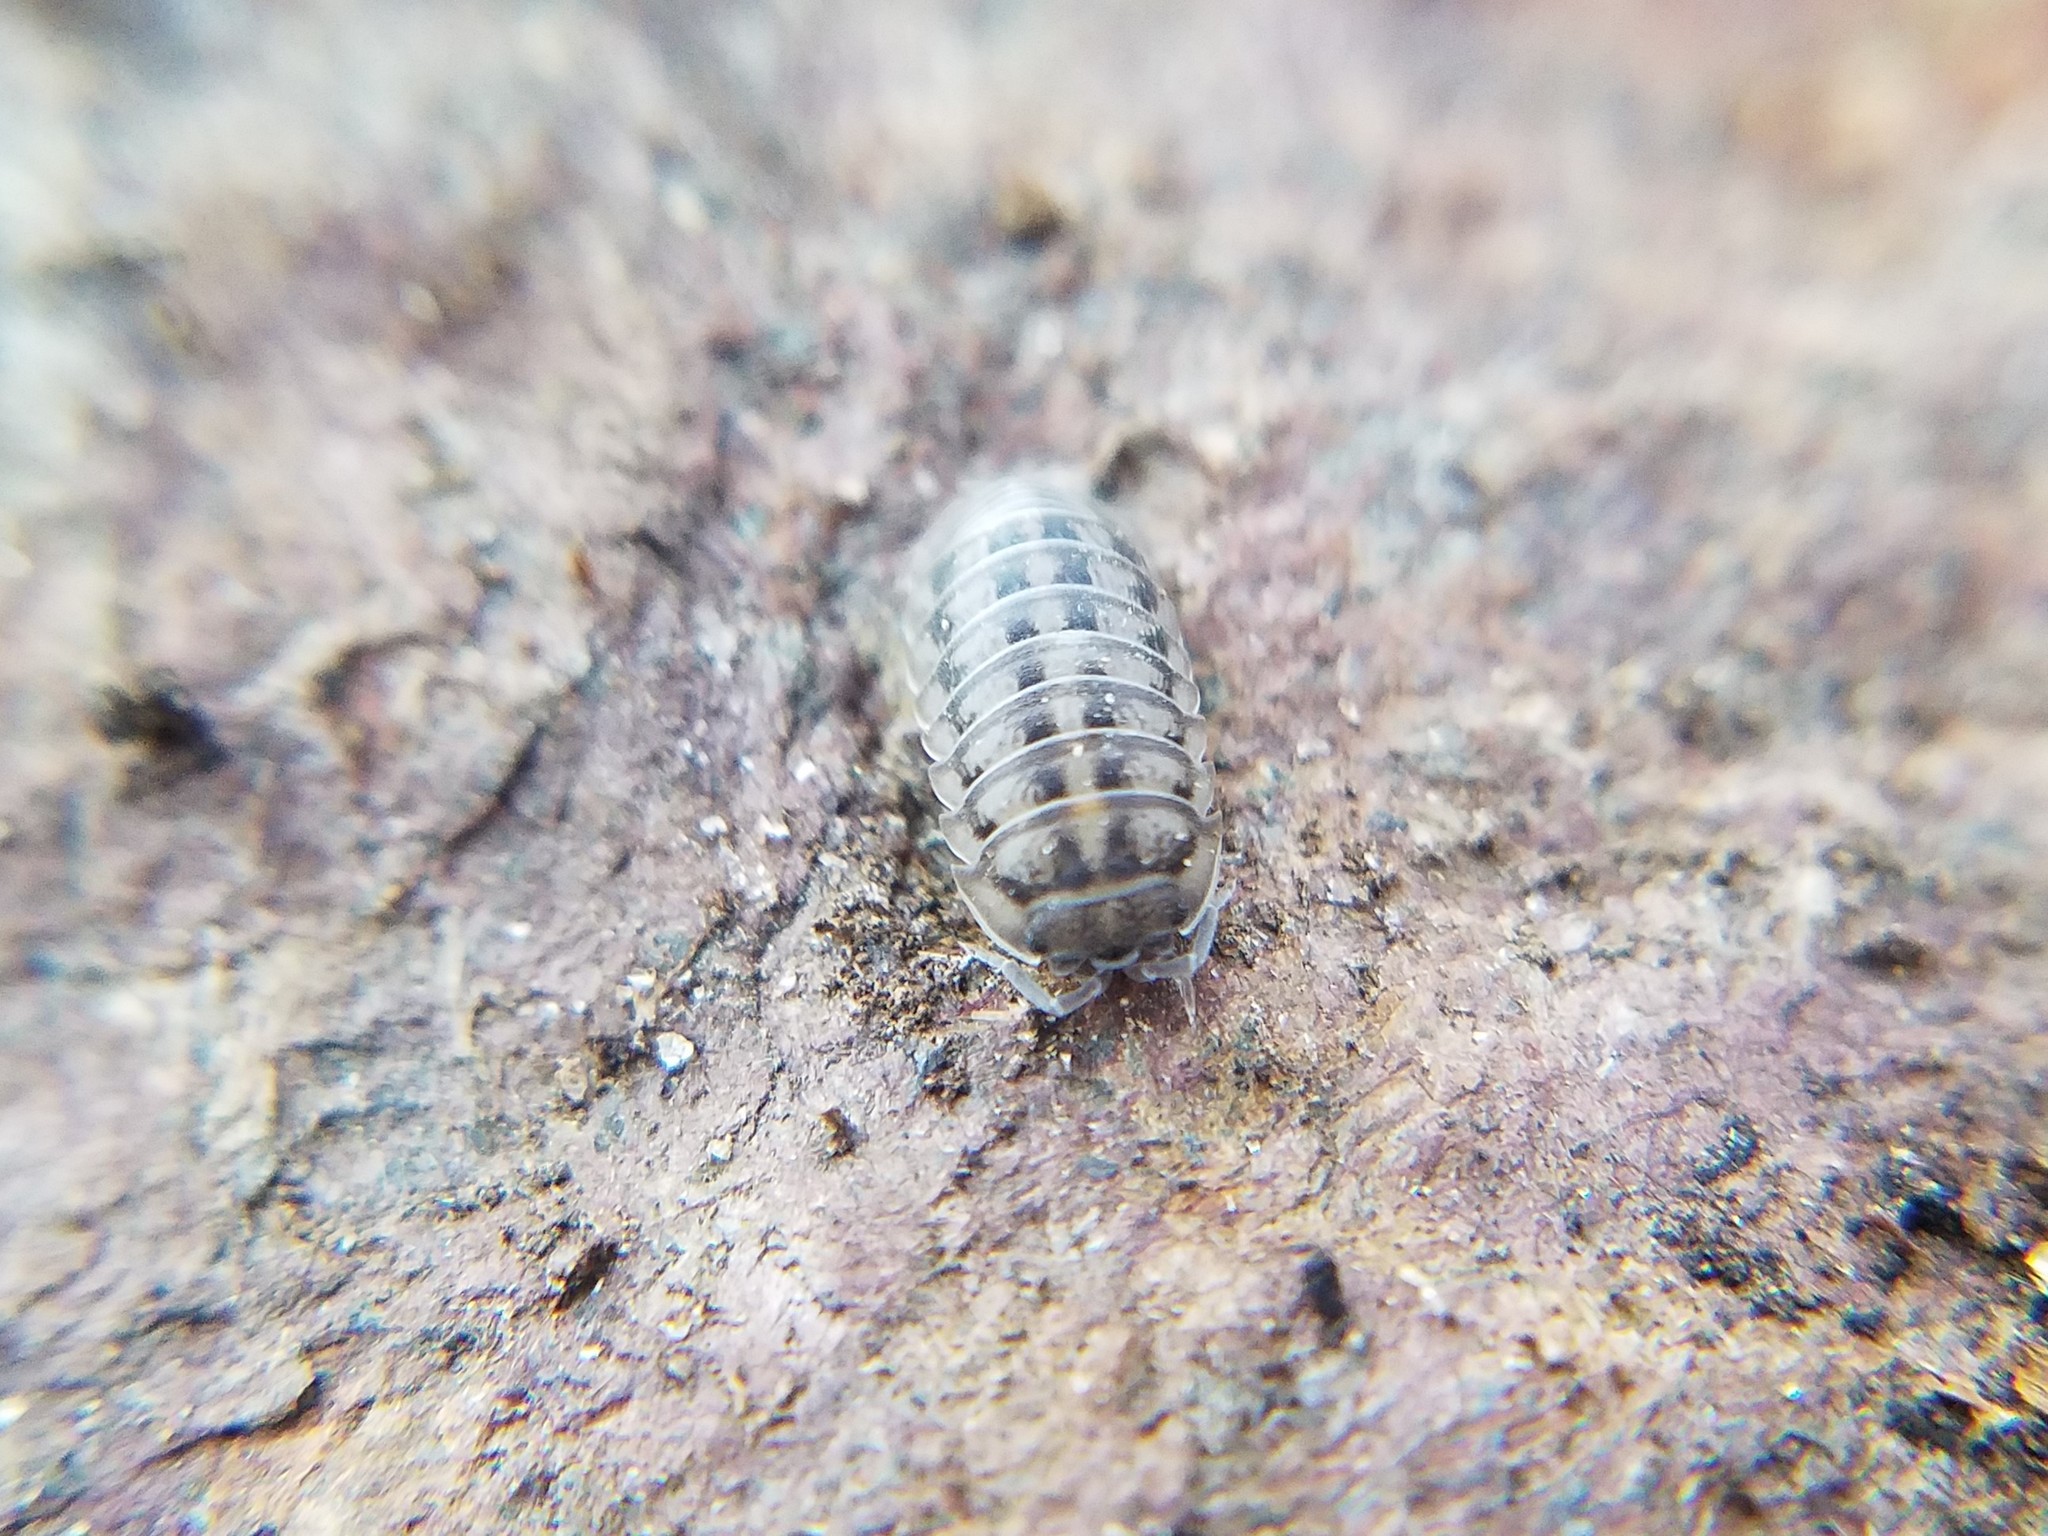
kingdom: Animalia
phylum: Arthropoda
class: Malacostraca
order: Isopoda
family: Armadillidiidae
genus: Armadillidium
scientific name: Armadillidium nasatum
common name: Isopod
